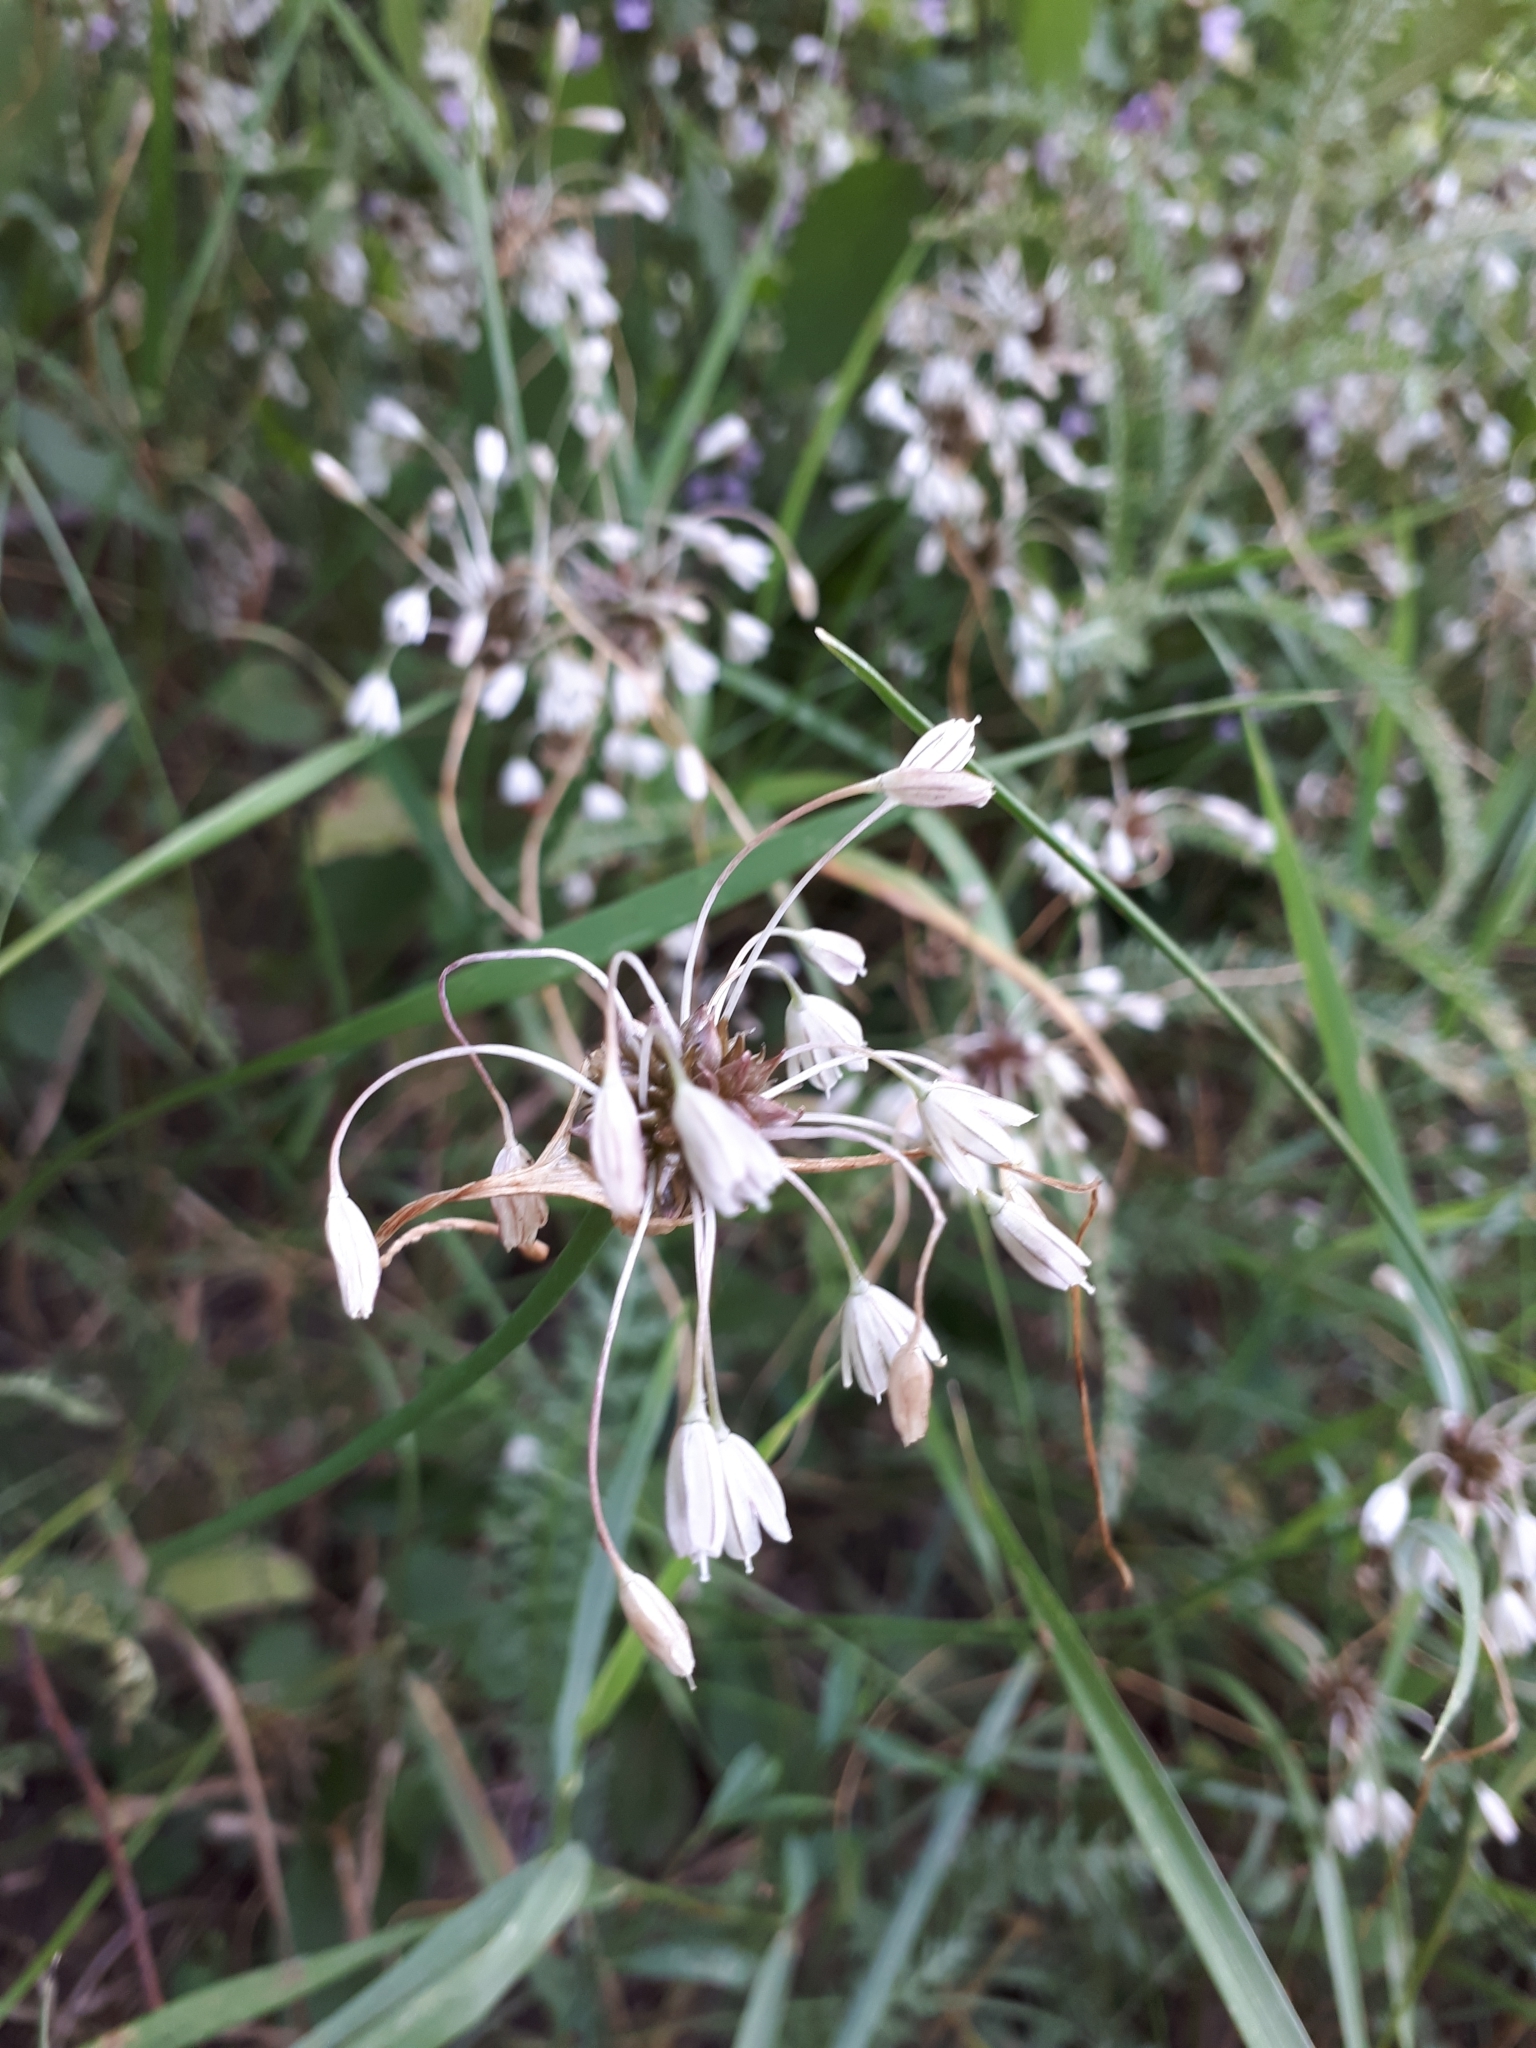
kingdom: Plantae
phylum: Tracheophyta
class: Liliopsida
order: Asparagales
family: Amaryllidaceae
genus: Allium
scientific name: Allium oleraceum
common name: Field garlic
